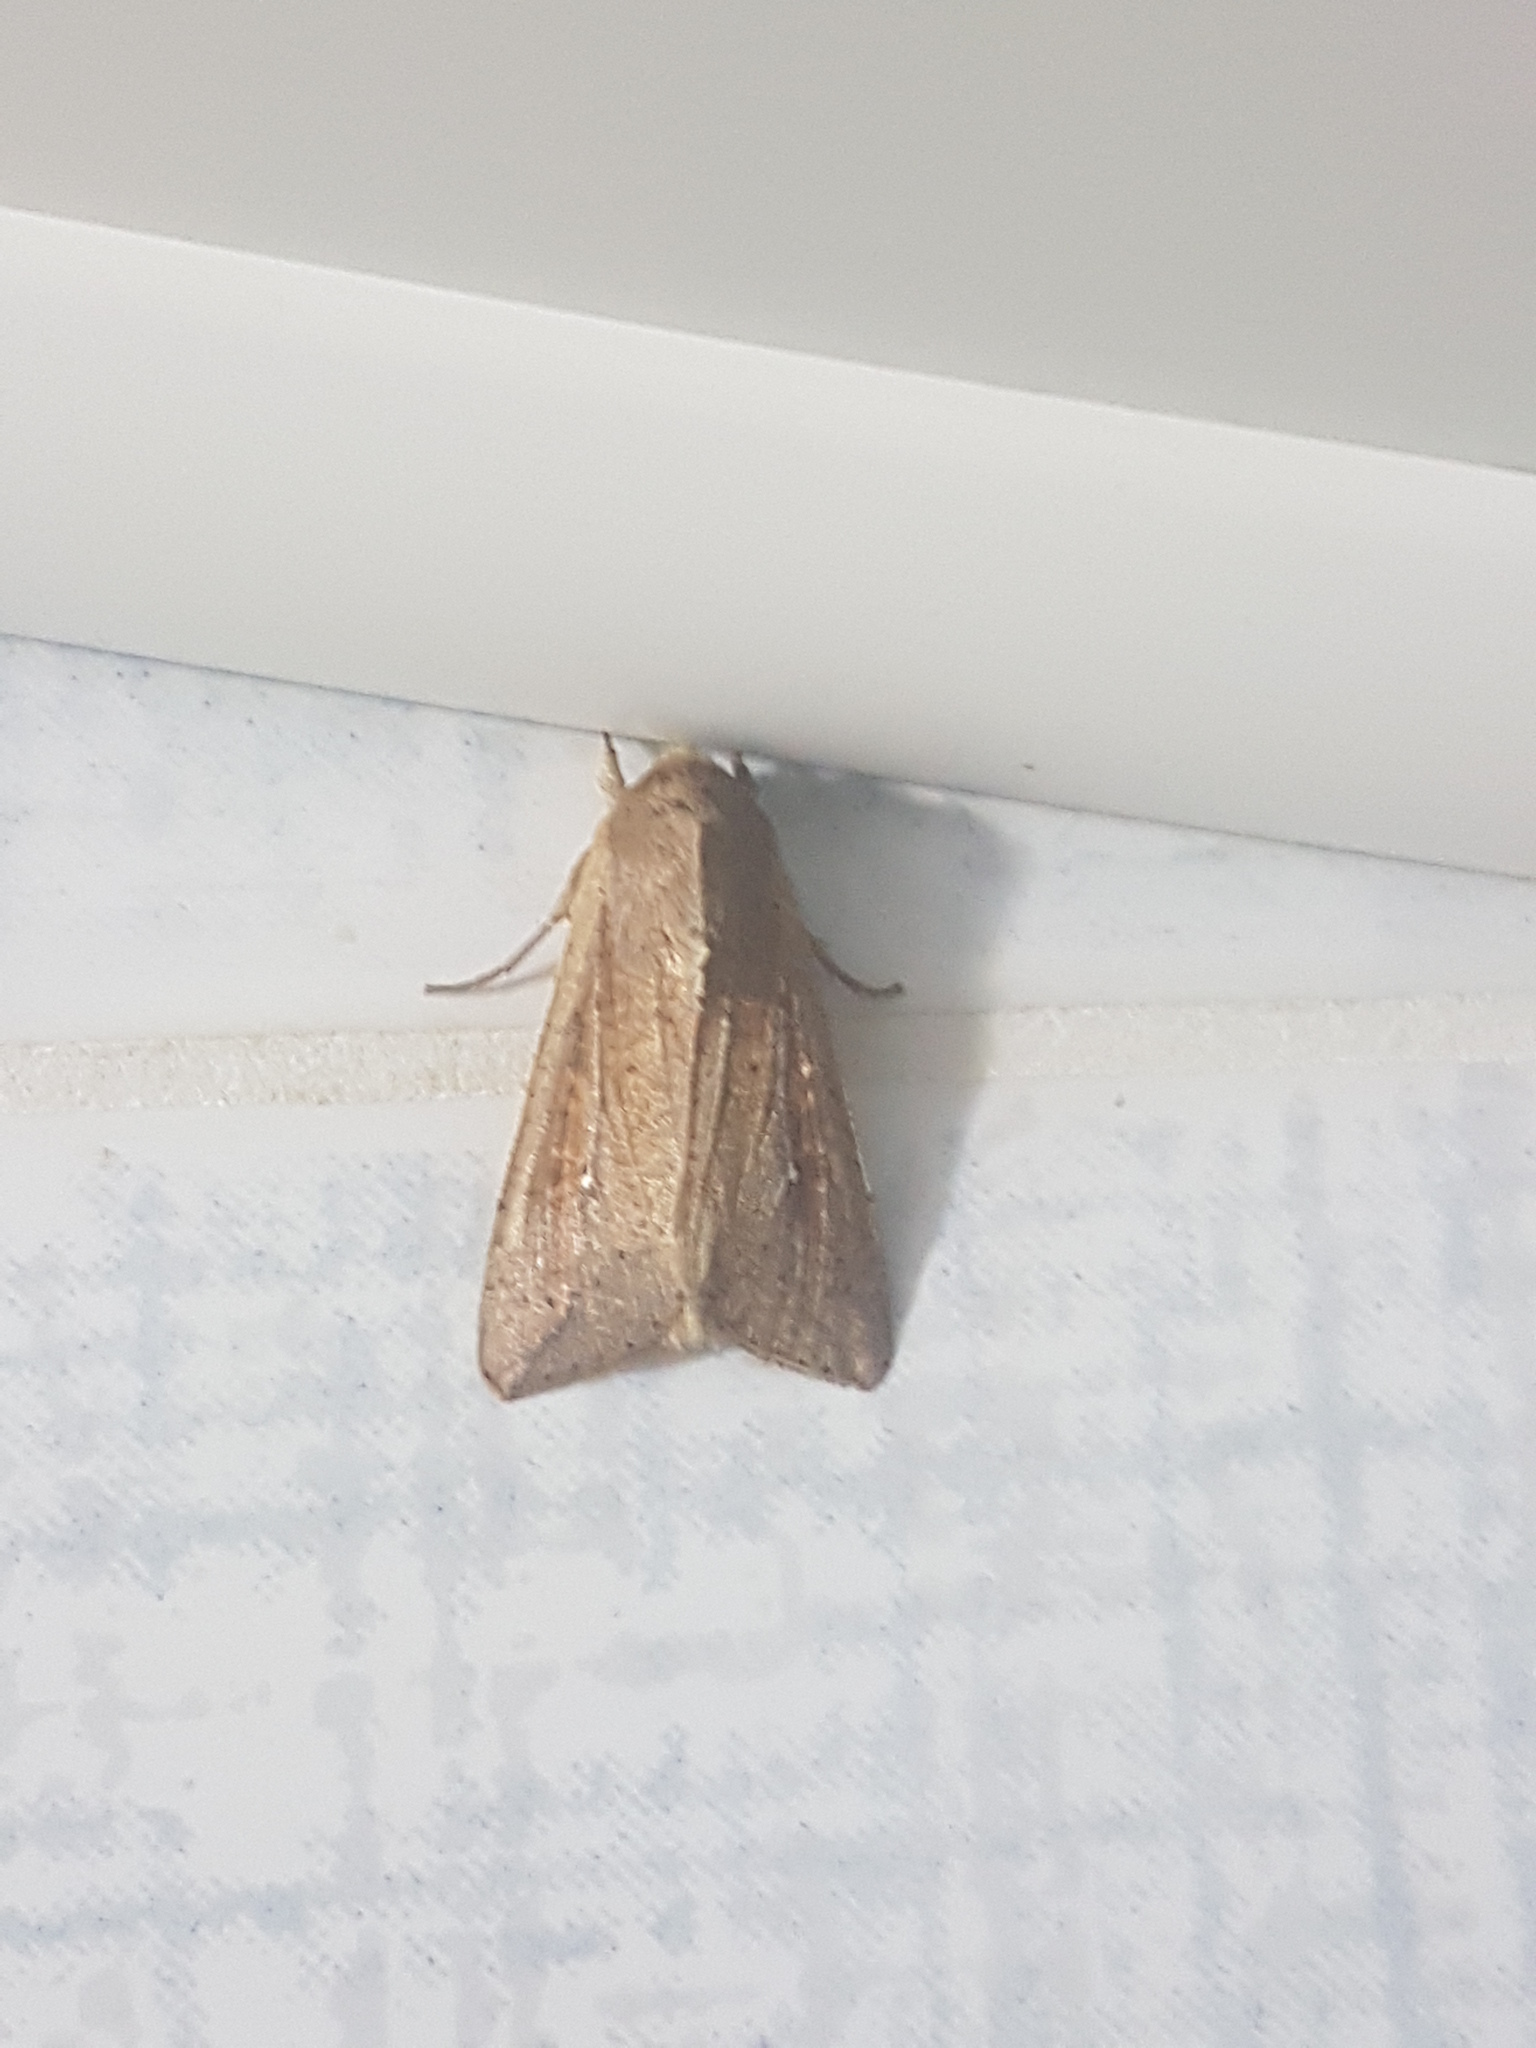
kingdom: Animalia
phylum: Arthropoda
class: Insecta
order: Lepidoptera
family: Noctuidae
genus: Leucania
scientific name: Leucania loreyi
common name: The cosmopolitan
